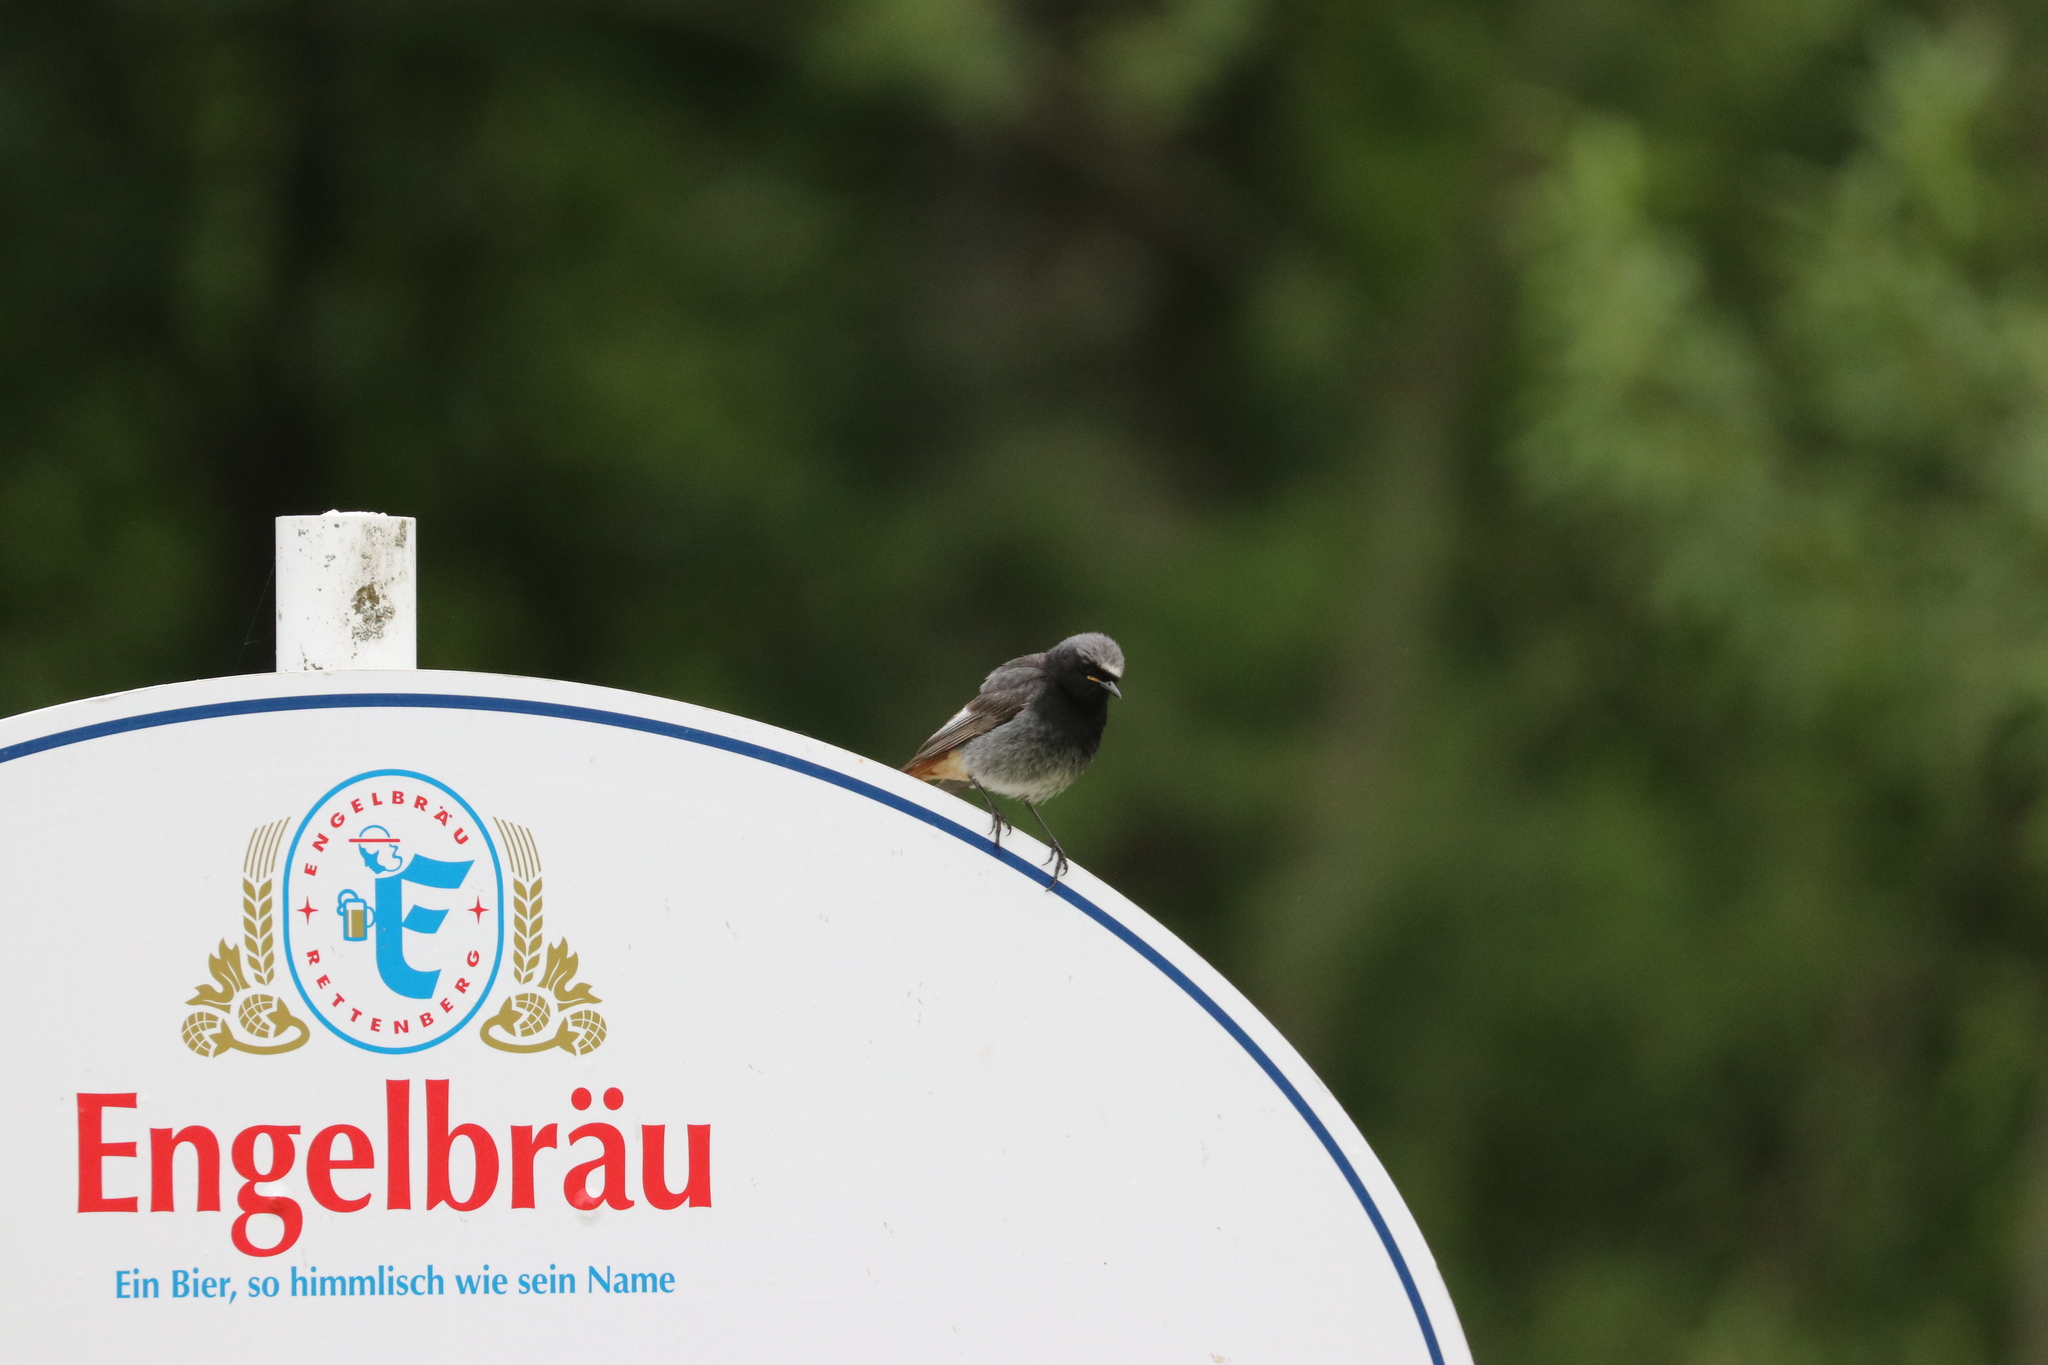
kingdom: Animalia
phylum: Chordata
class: Aves
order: Passeriformes
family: Muscicapidae
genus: Phoenicurus
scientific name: Phoenicurus ochruros
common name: Black redstart
